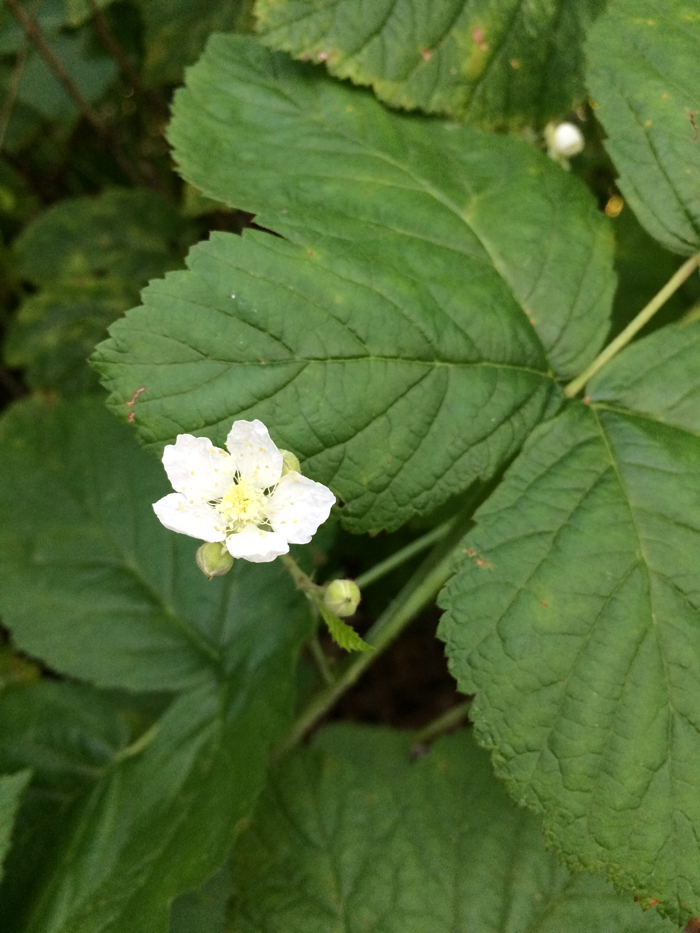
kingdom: Plantae
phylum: Tracheophyta
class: Magnoliopsida
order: Rosales
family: Rosaceae
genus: Rubus
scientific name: Rubus caesius
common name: Dewberry
